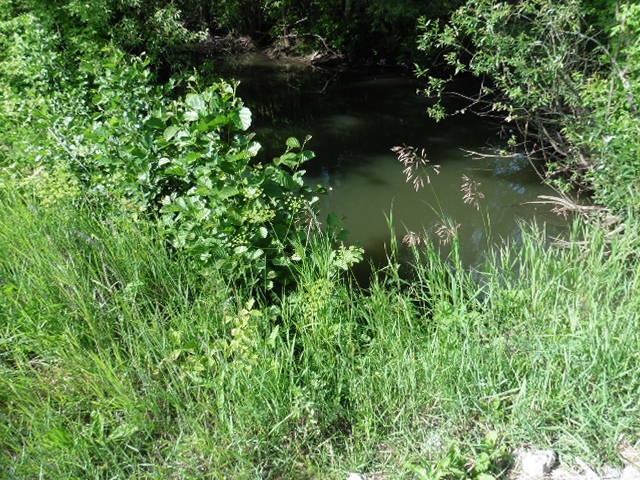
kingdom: Plantae
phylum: Tracheophyta
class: Magnoliopsida
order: Fagales
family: Betulaceae
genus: Alnus
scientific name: Alnus glutinosa
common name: Black alder
